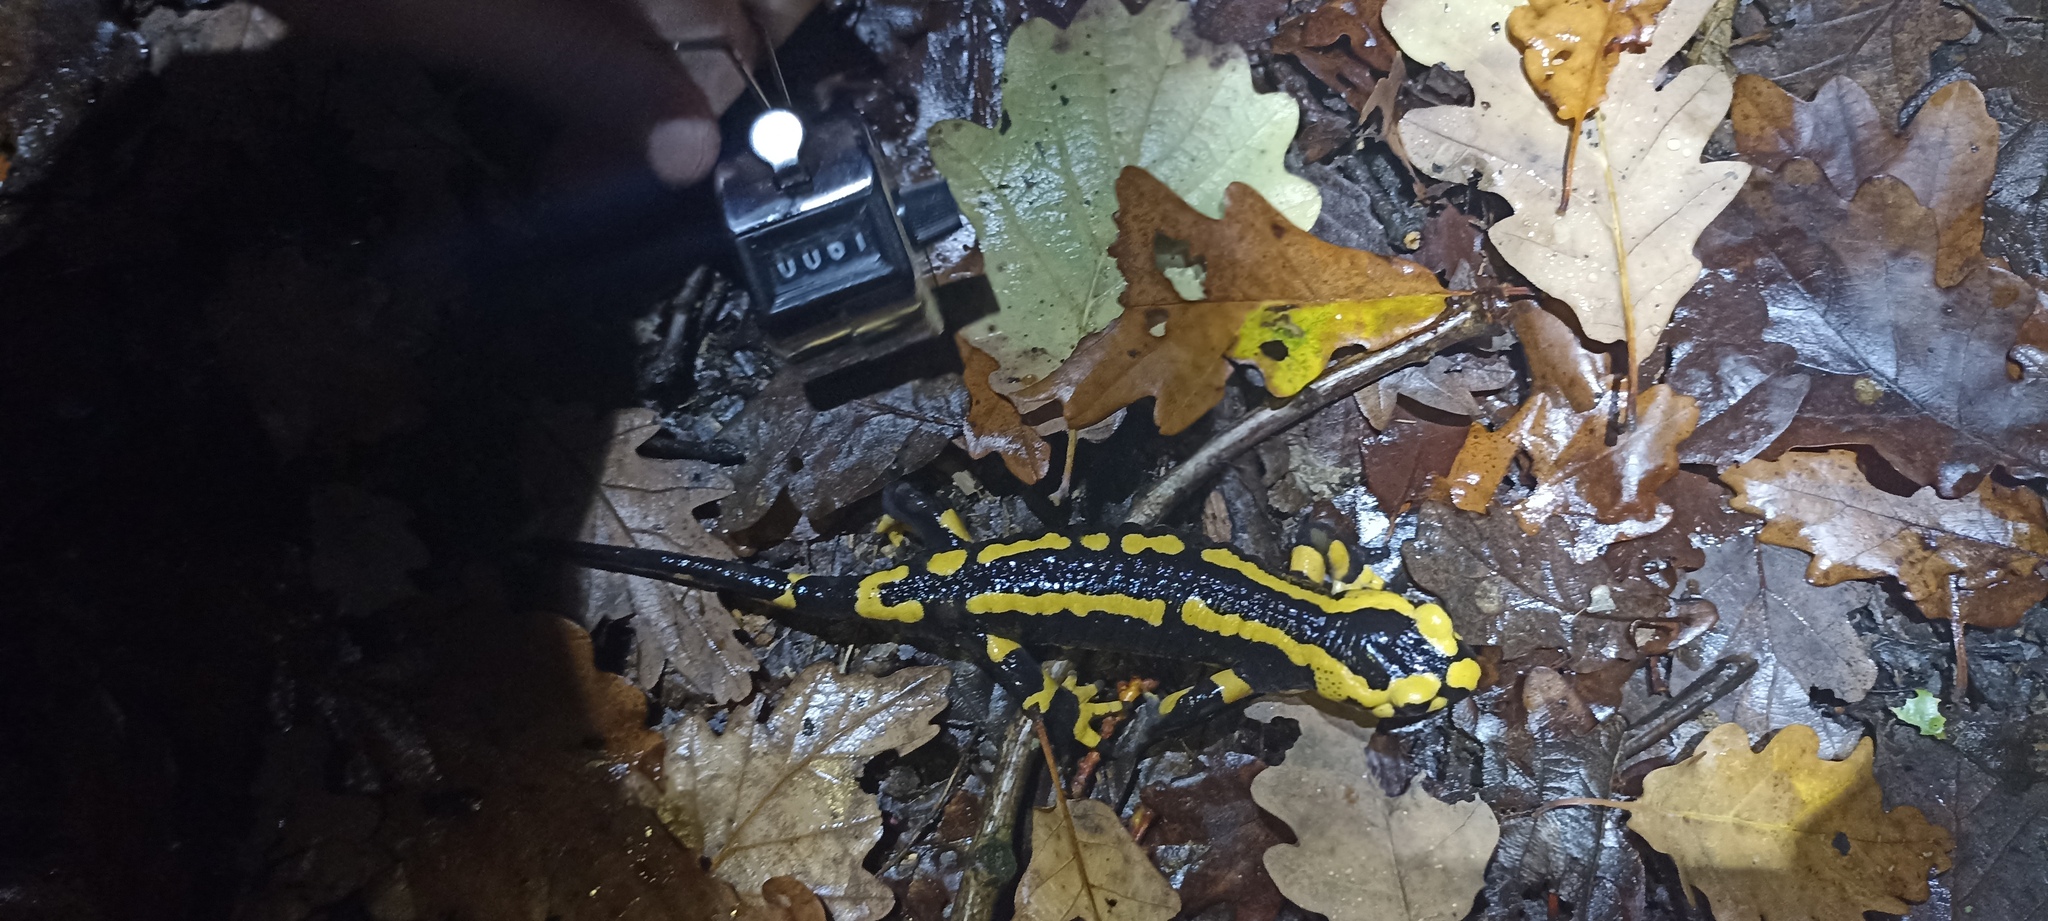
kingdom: Animalia
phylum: Chordata
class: Amphibia
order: Caudata
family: Salamandridae
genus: Salamandra
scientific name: Salamandra salamandra
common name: Fire salamander
